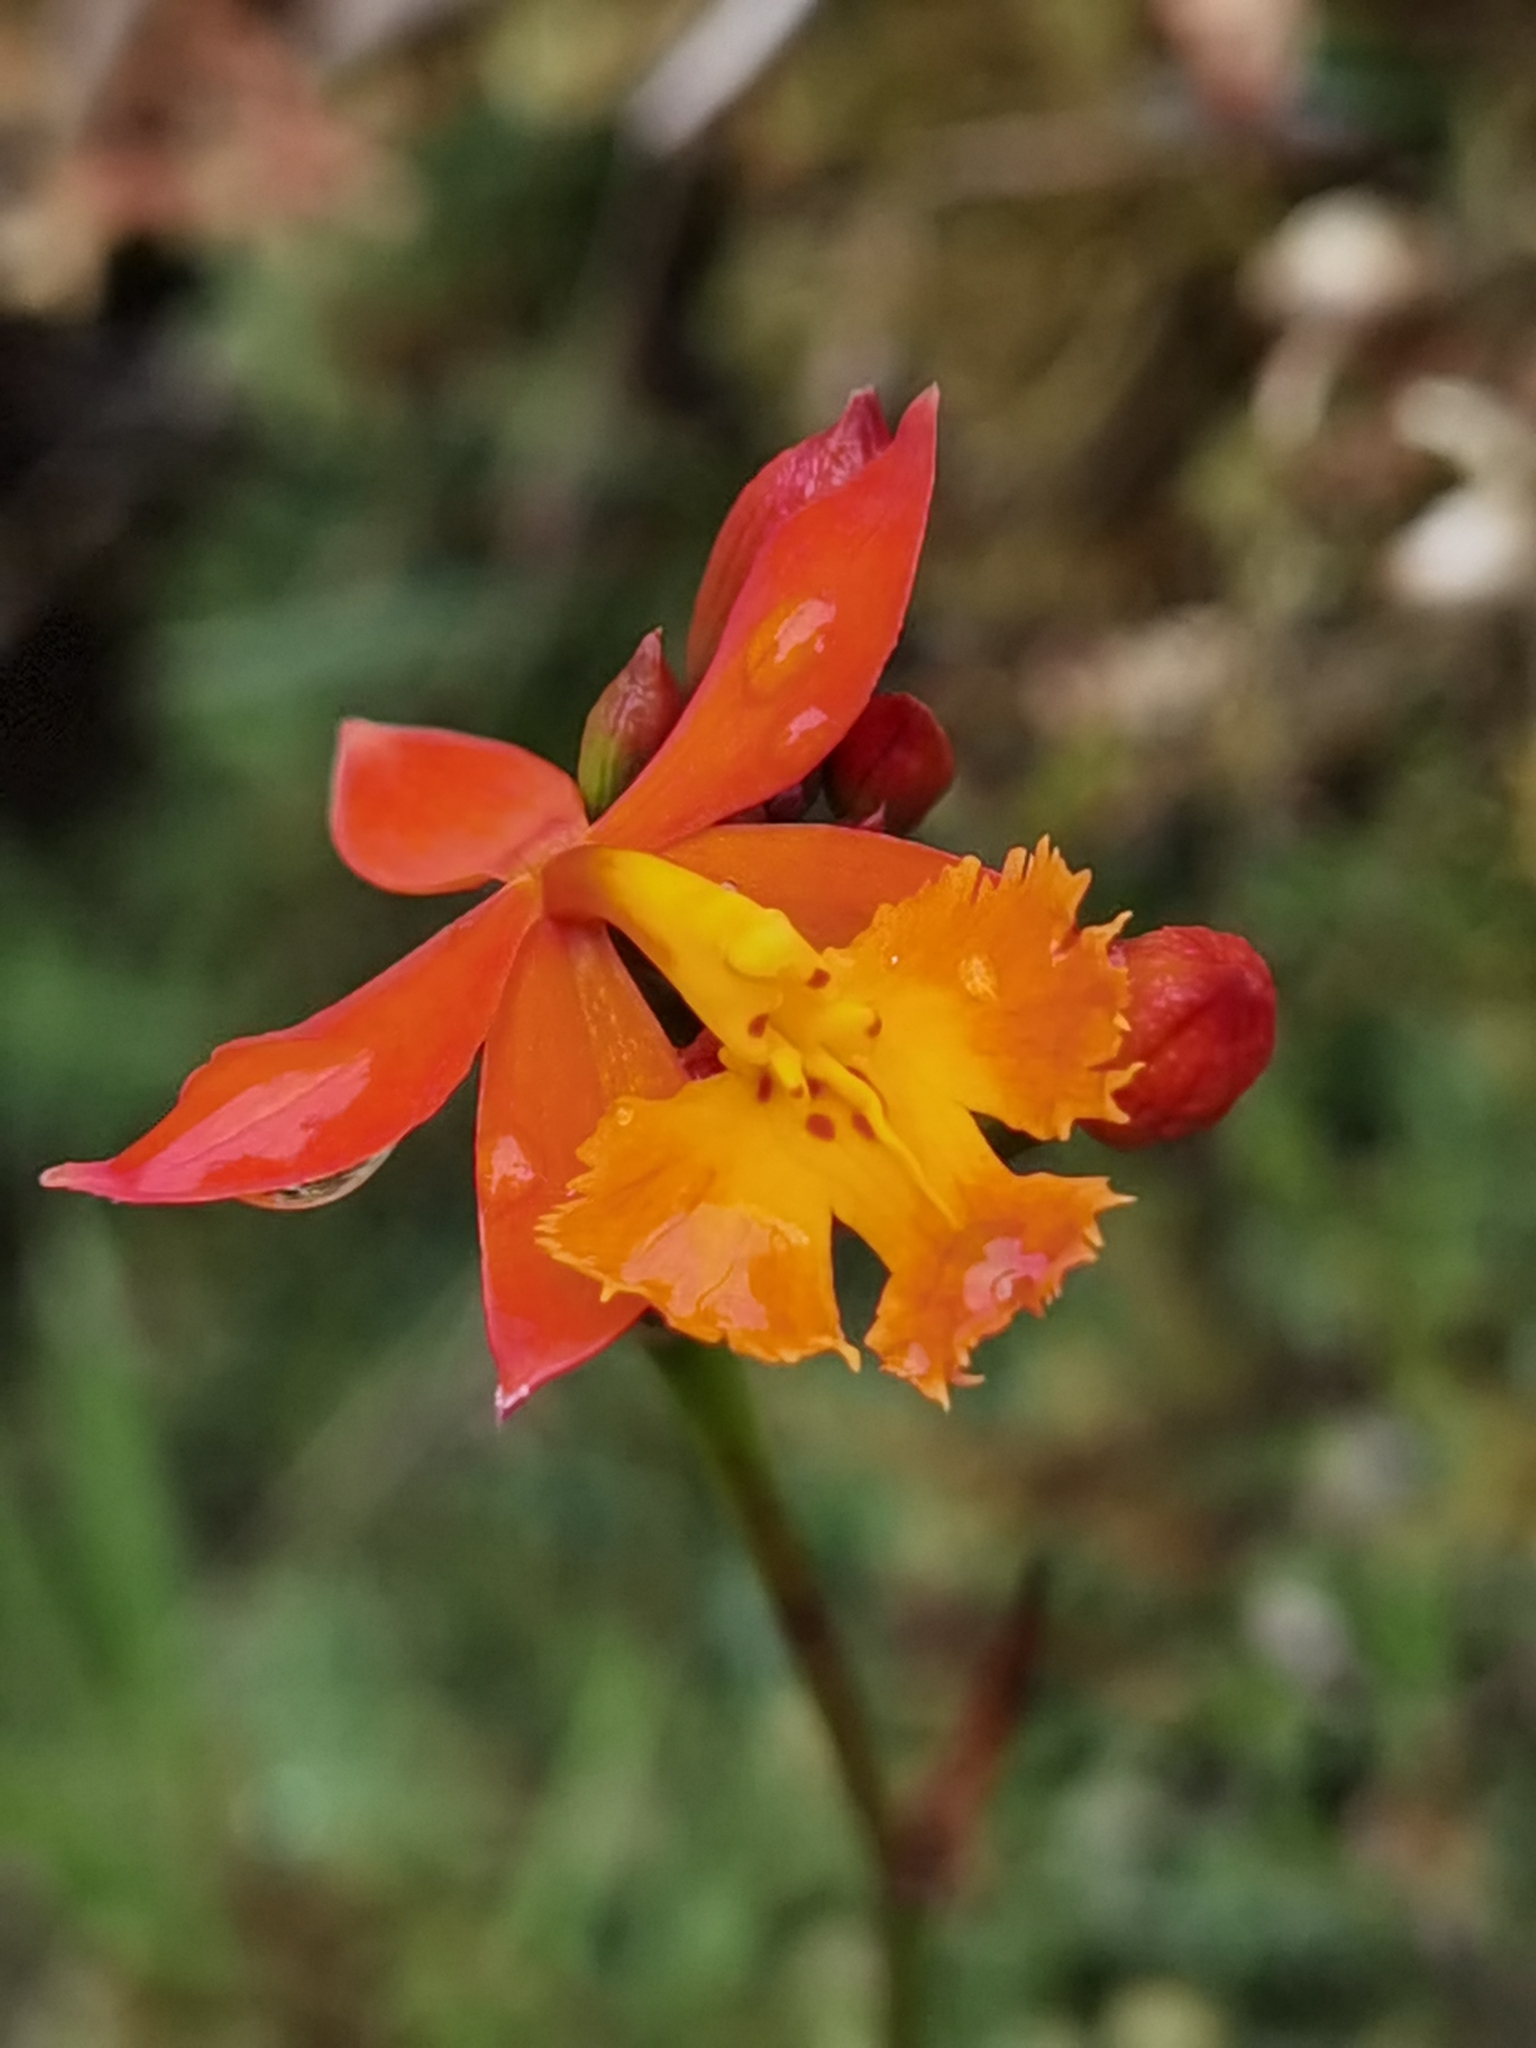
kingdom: Plantae
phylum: Tracheophyta
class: Liliopsida
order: Asparagales
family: Orchidaceae
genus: Epidendrum
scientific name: Epidendrum radicans
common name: Fire star orchid
